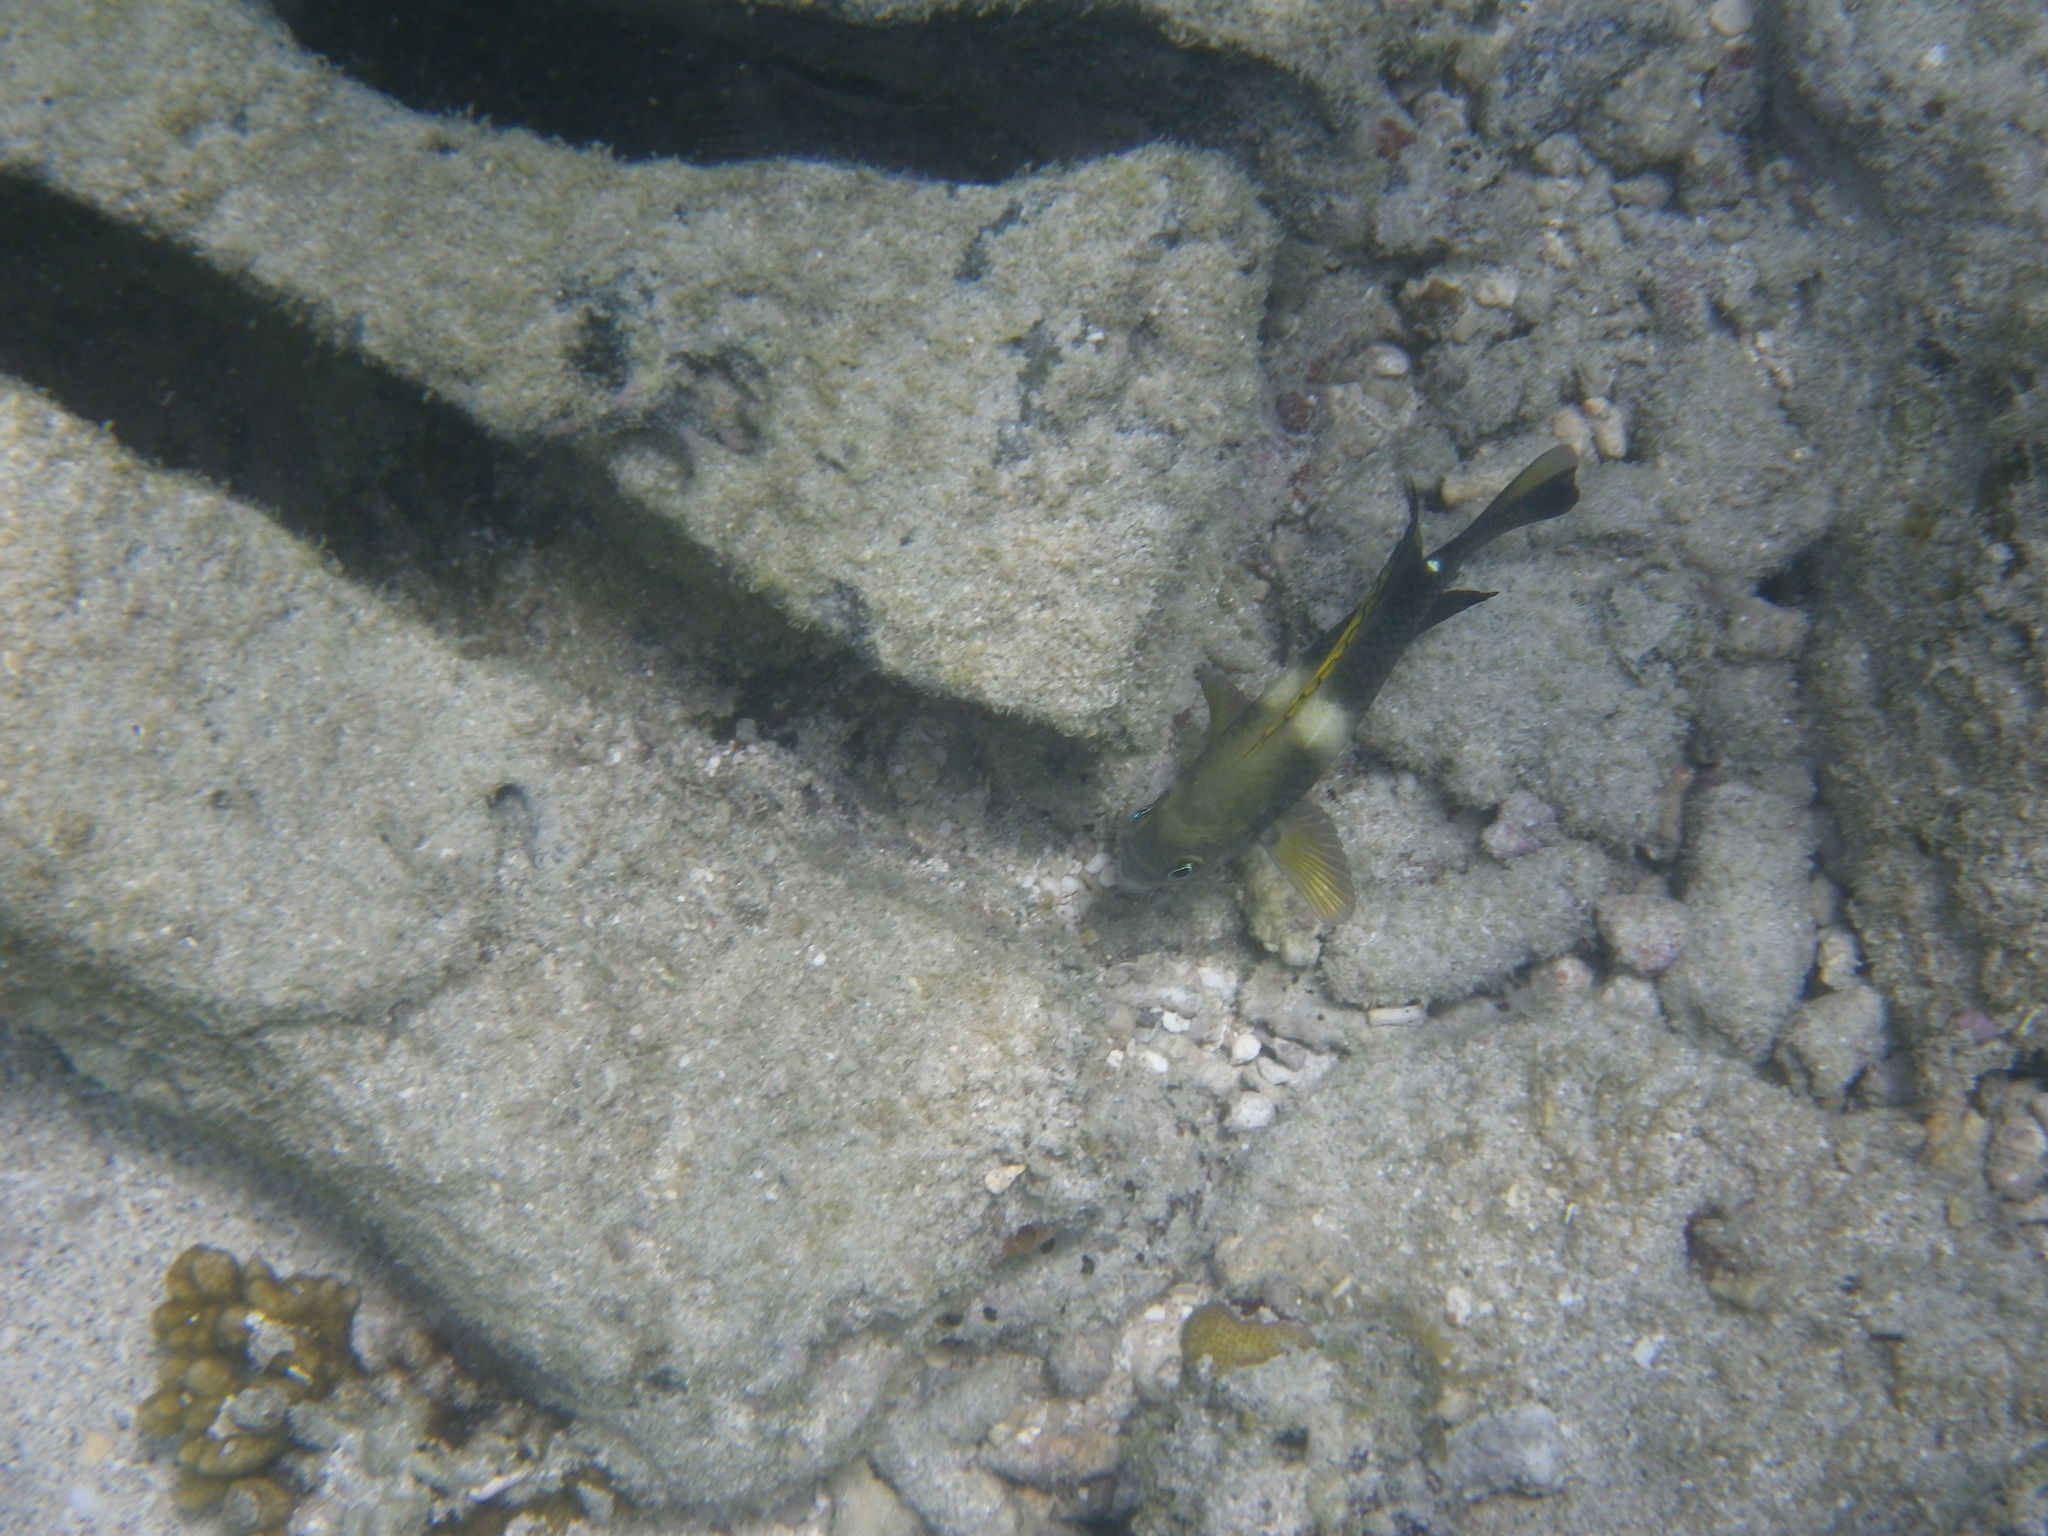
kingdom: Animalia
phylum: Chordata
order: Perciformes
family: Pomacentridae
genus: Chrysiptera
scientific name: Chrysiptera biocellata
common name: Twinspot damselfish
